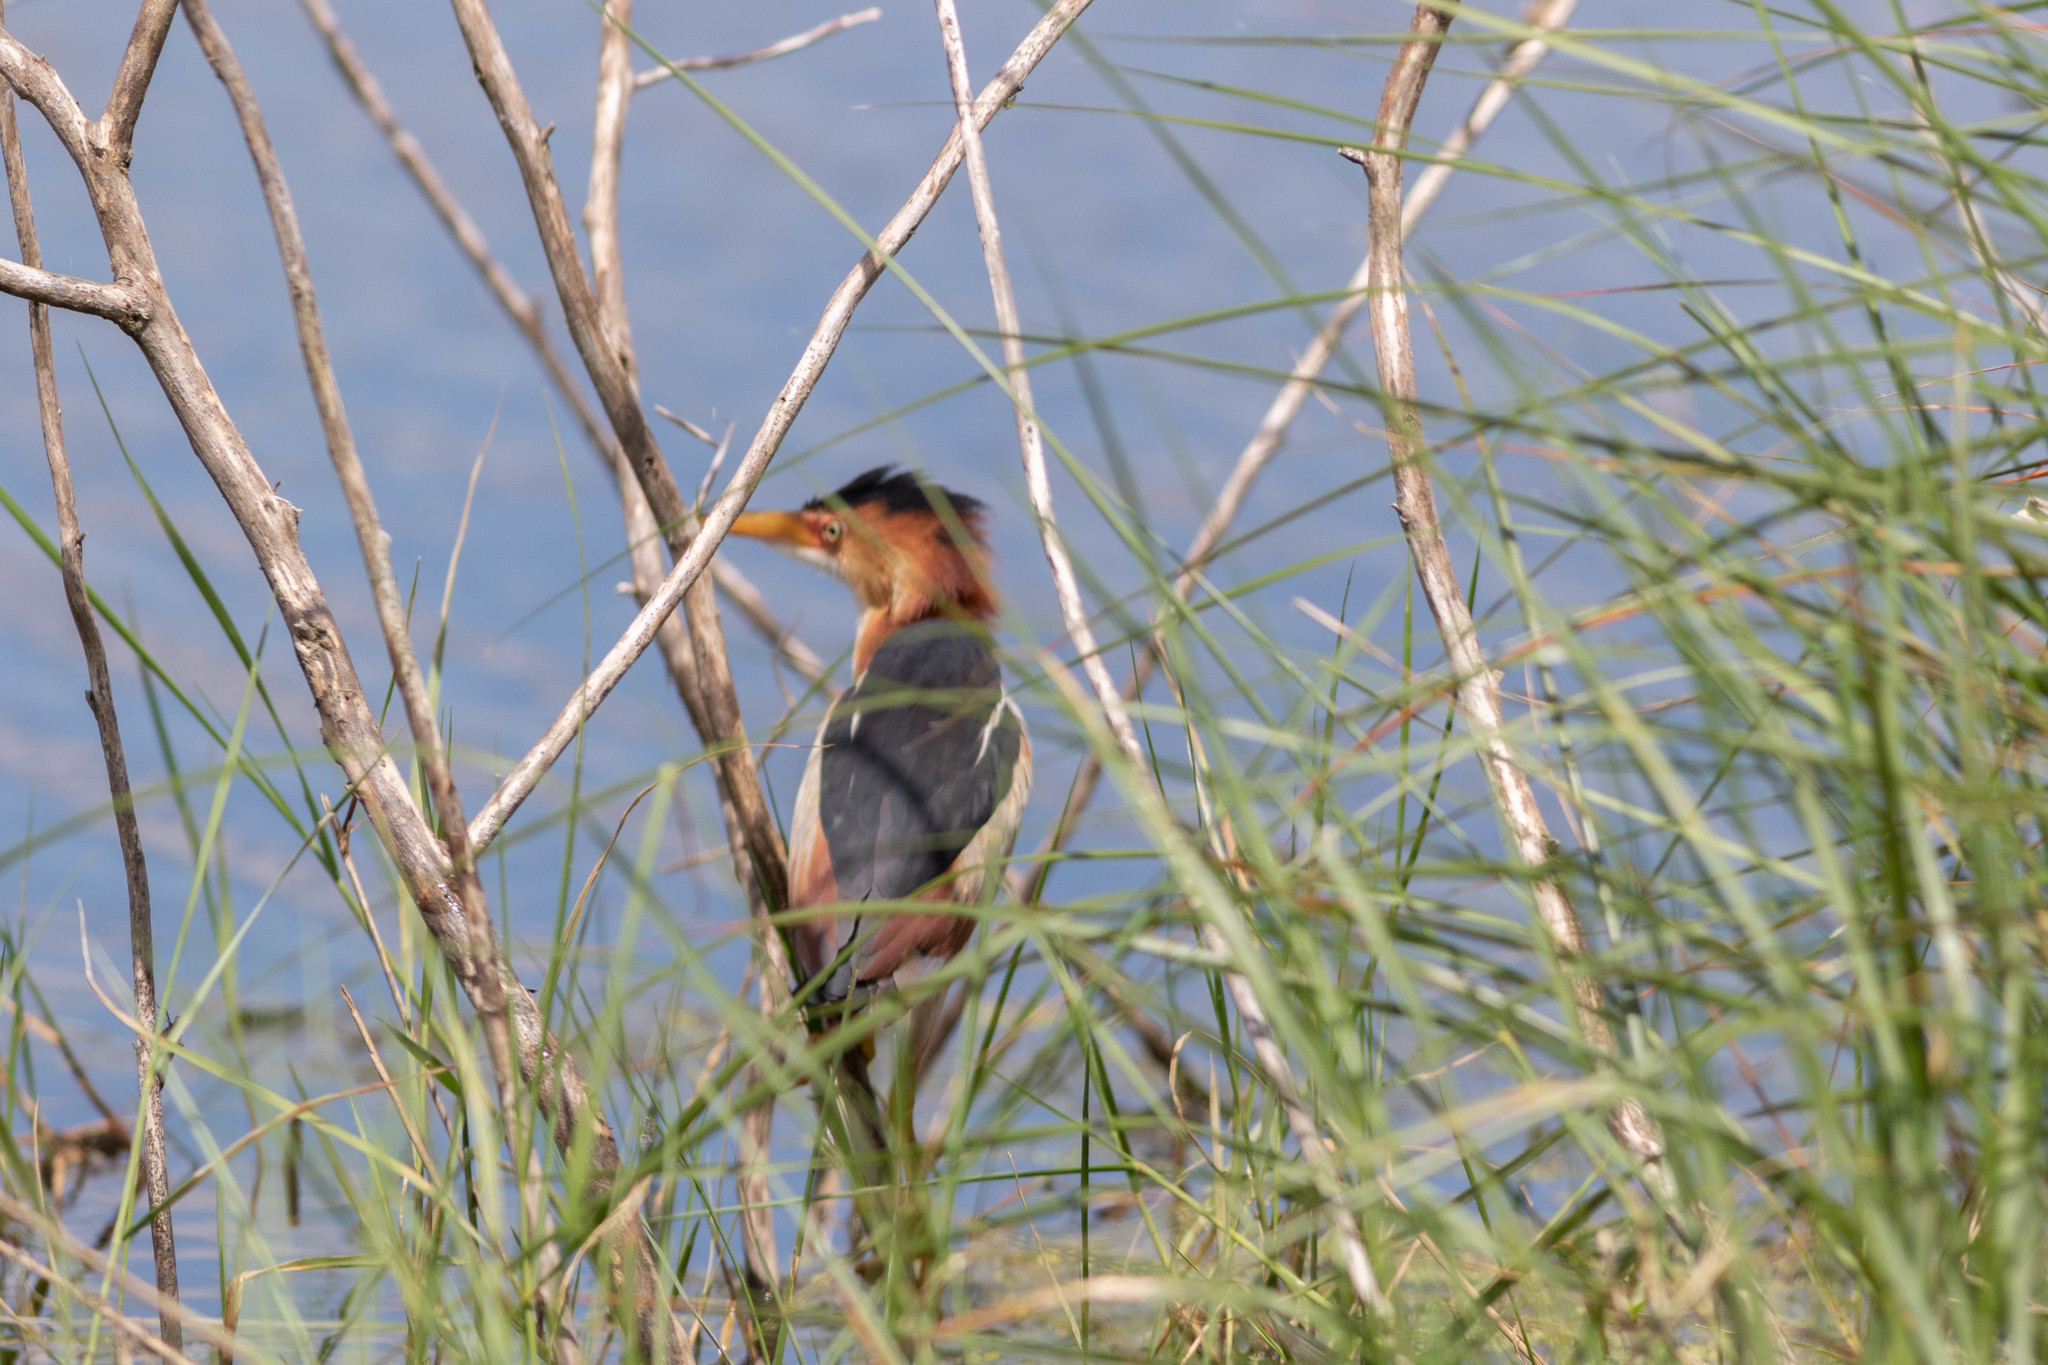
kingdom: Animalia
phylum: Chordata
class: Aves
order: Pelecaniformes
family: Ardeidae
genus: Ixobrychus
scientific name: Ixobrychus exilis
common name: Least bittern
